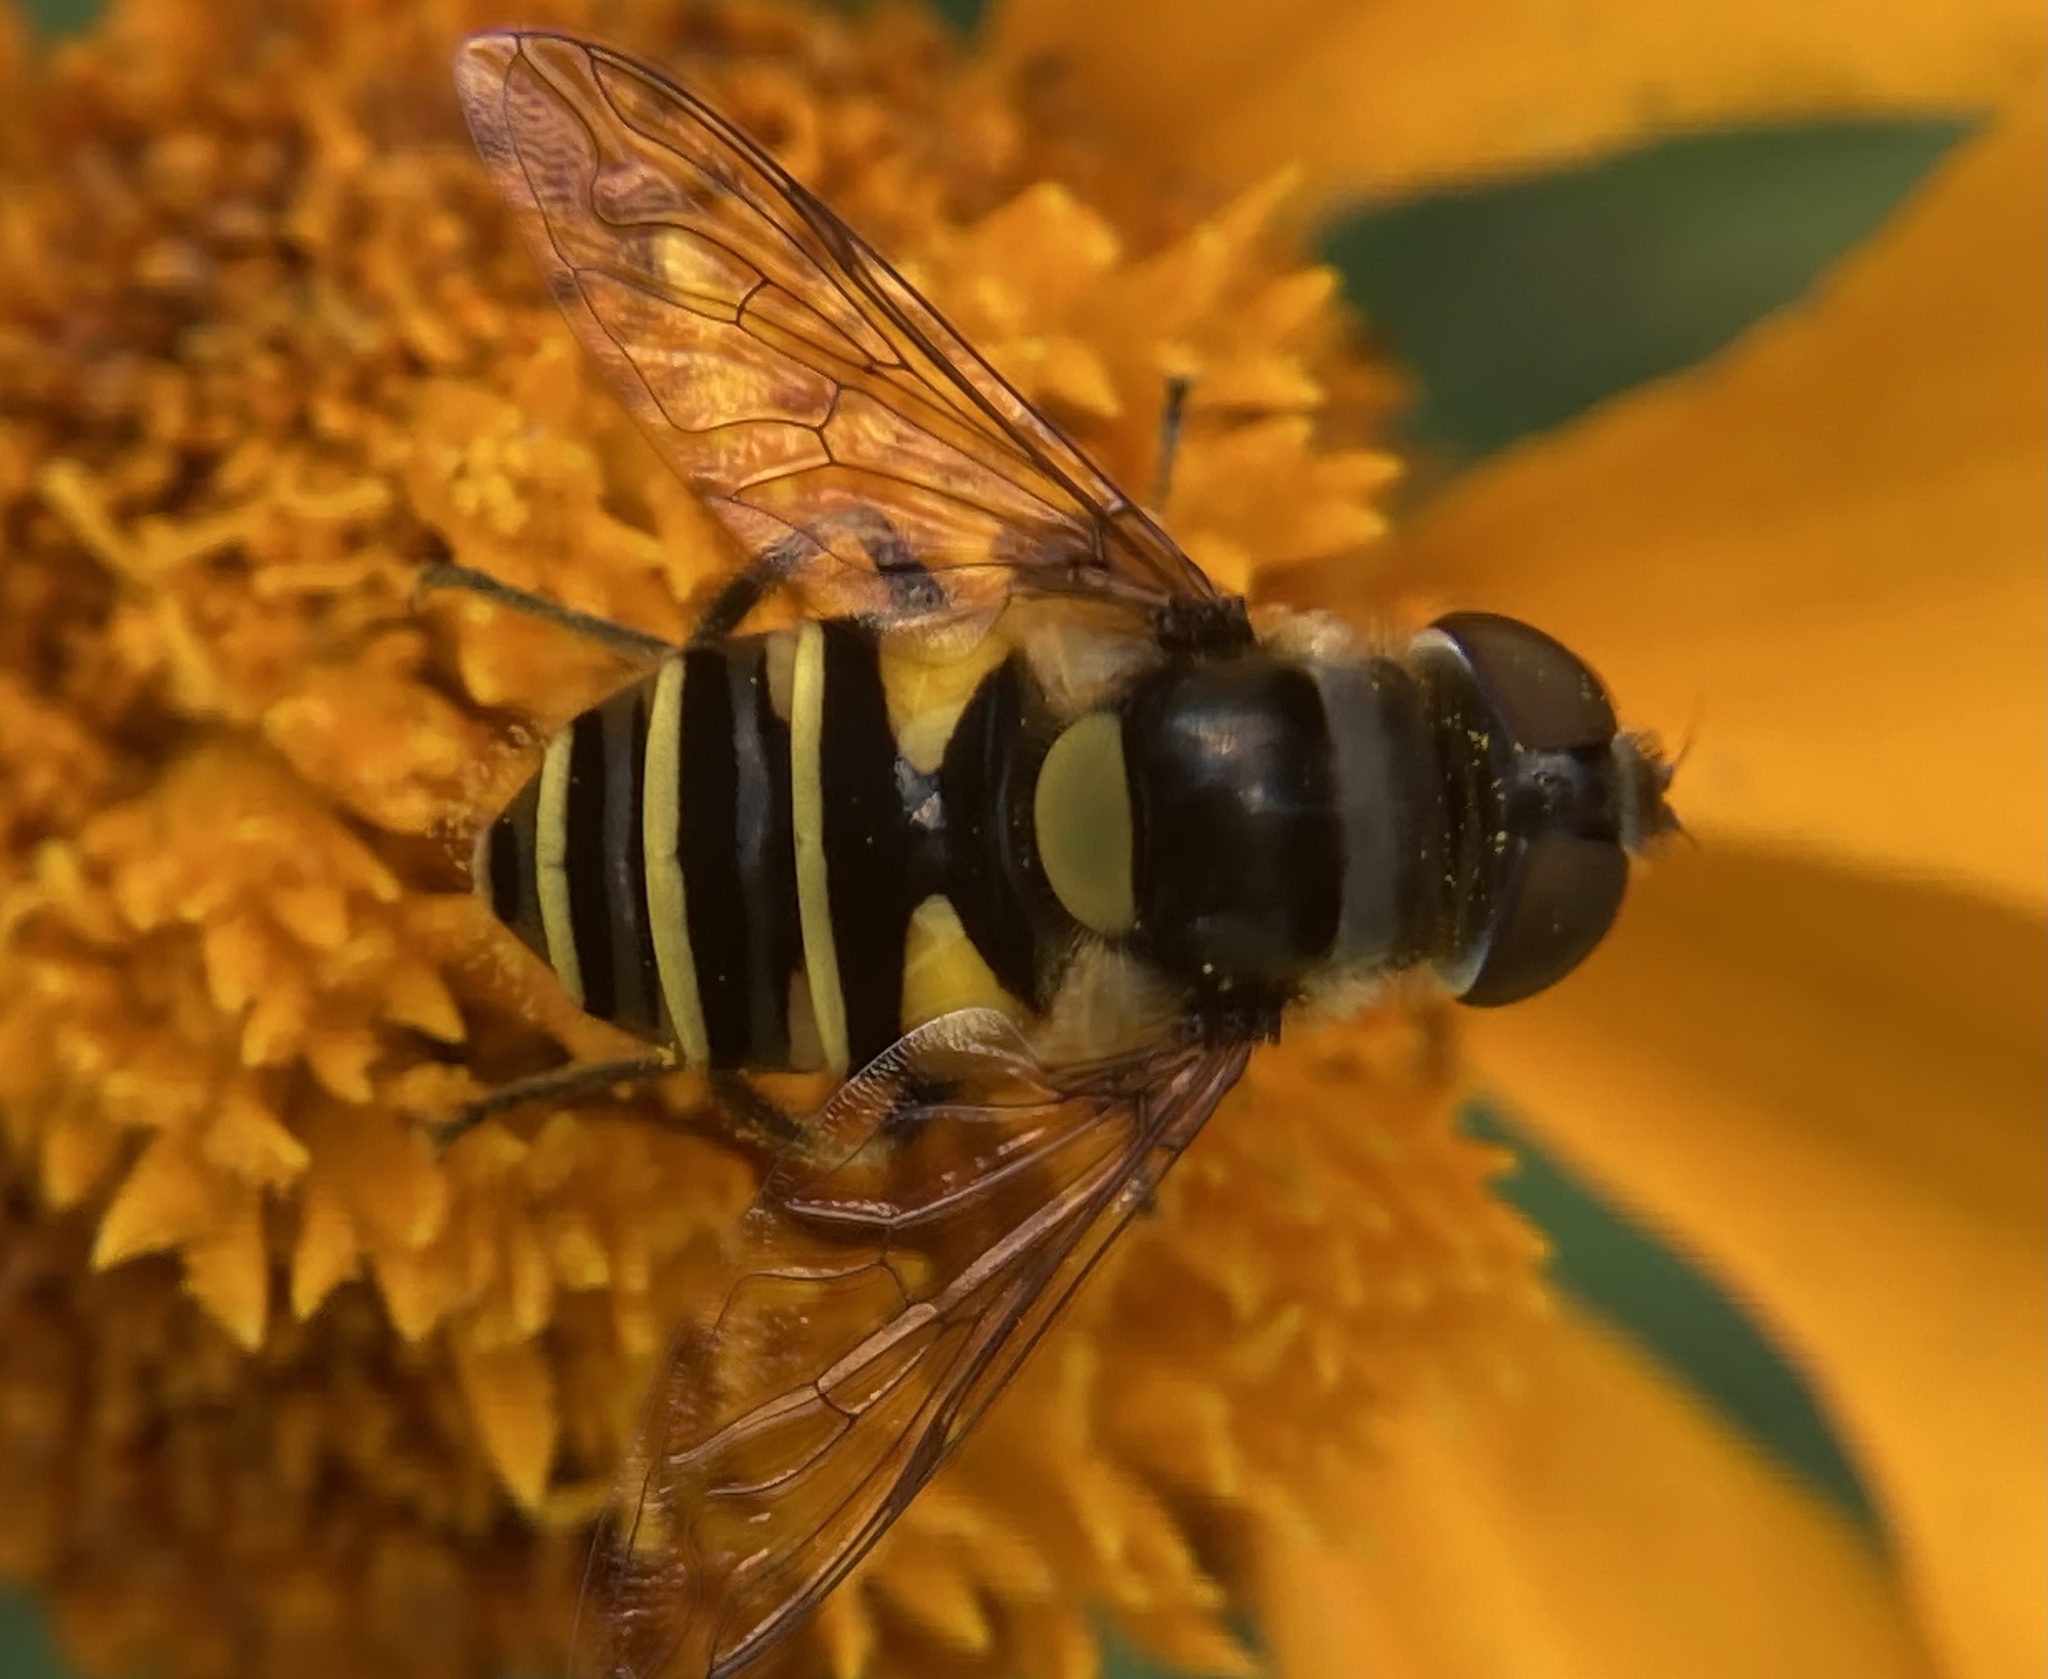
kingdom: Animalia
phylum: Arthropoda
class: Insecta
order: Diptera
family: Syrphidae
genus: Eristalis
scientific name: Eristalis transversa
